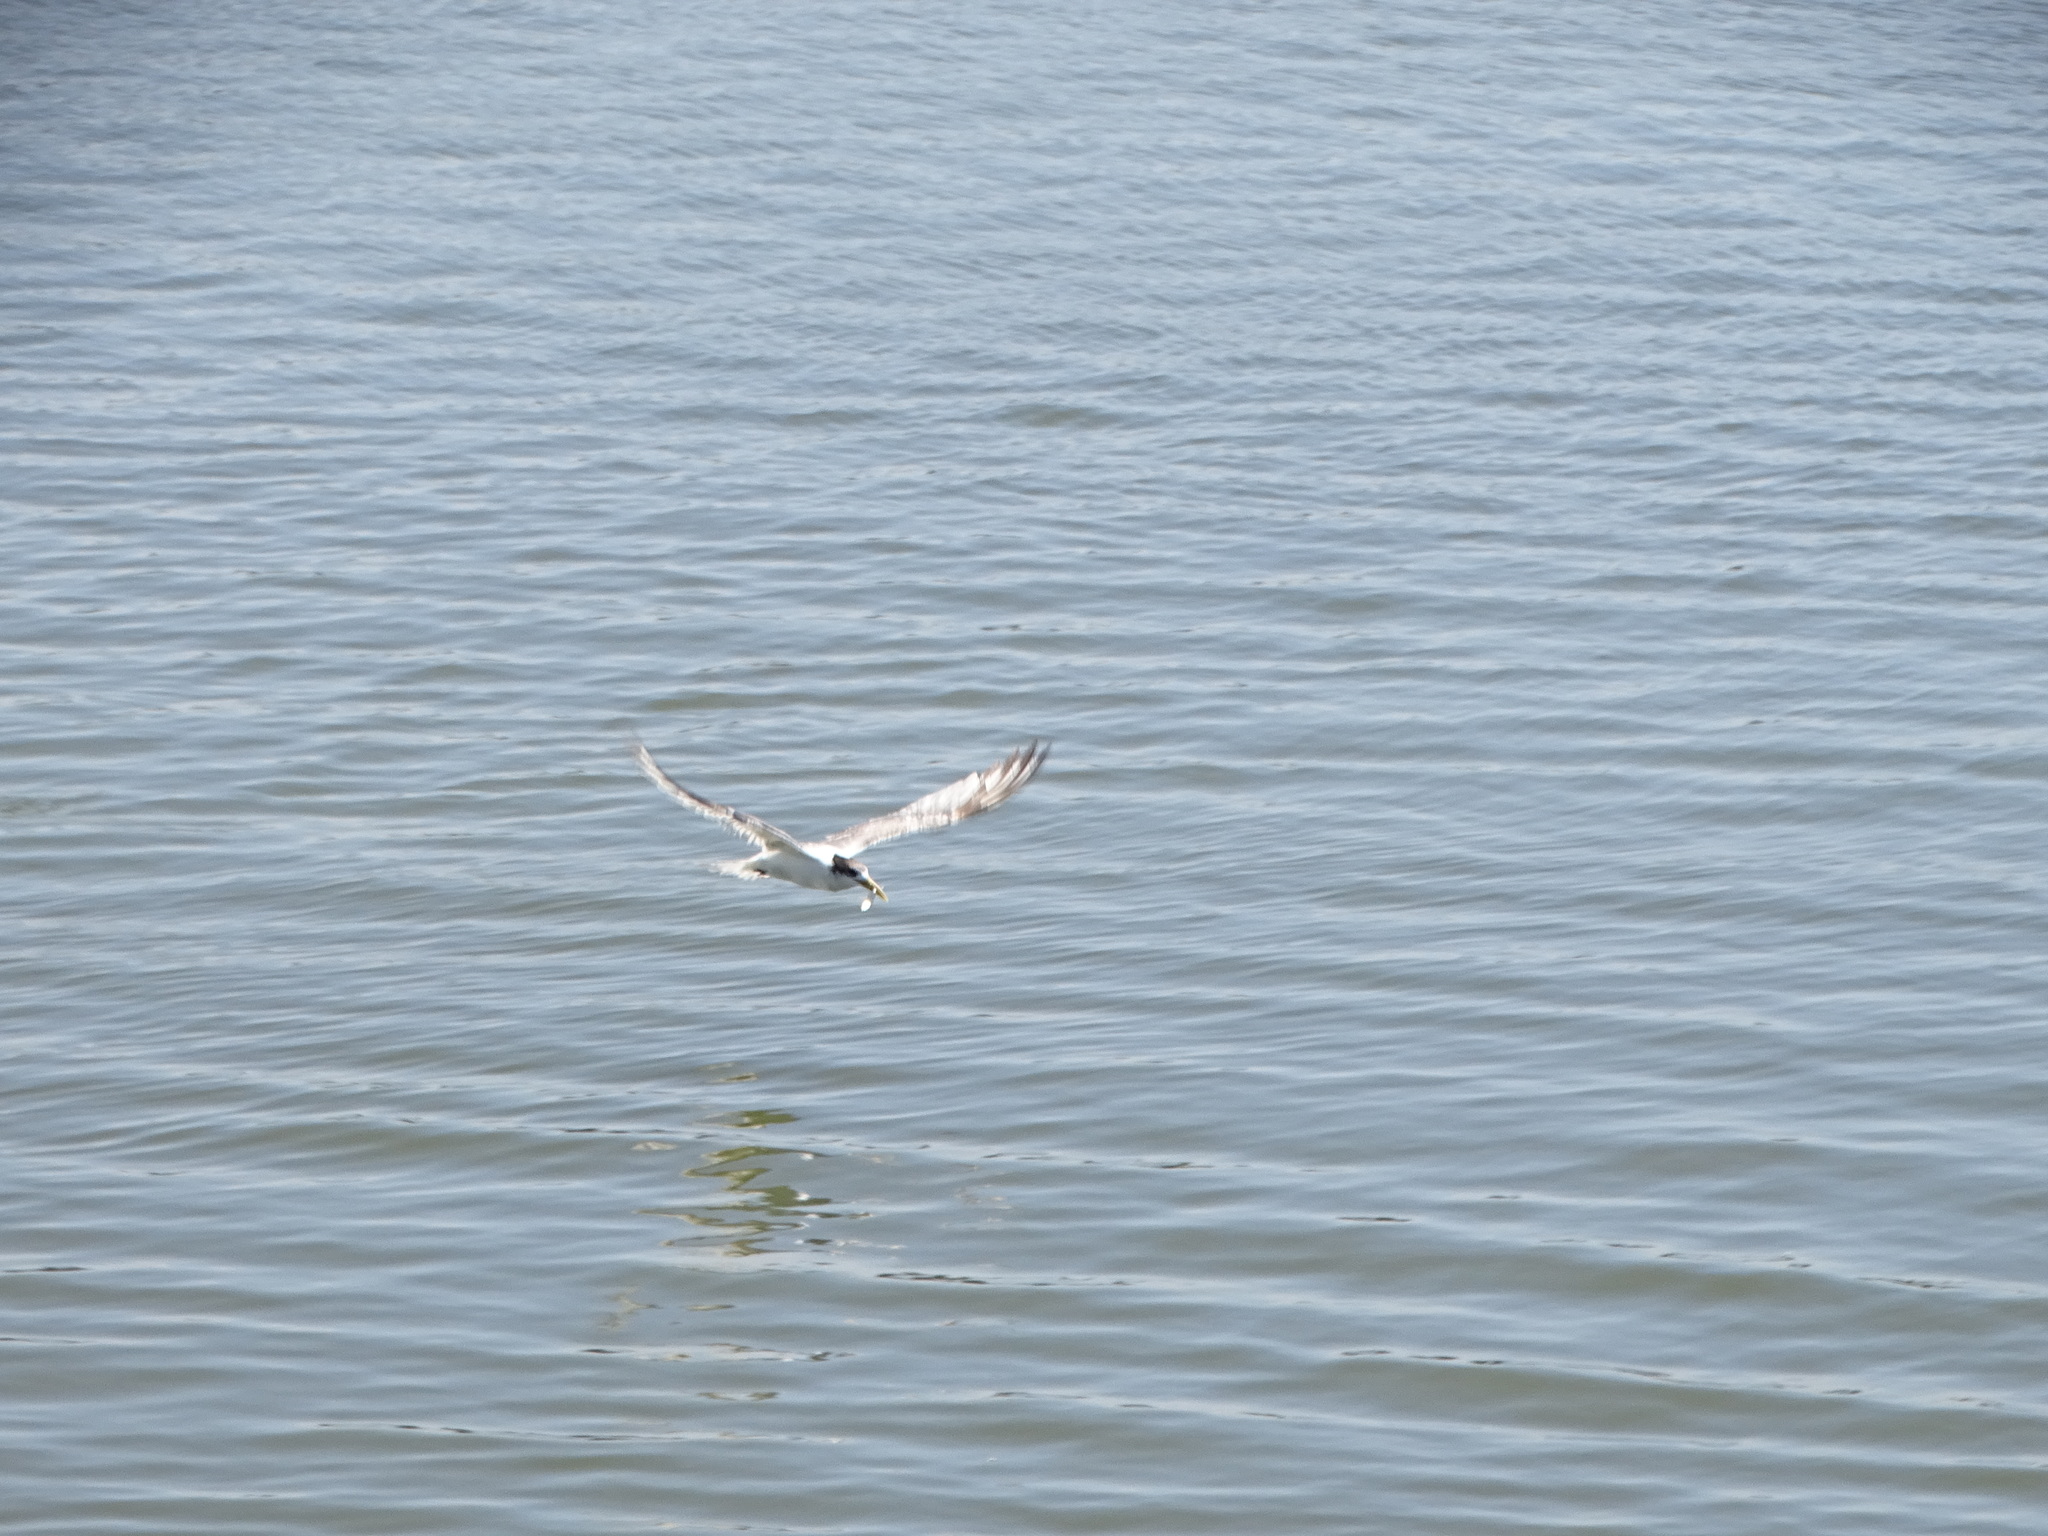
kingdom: Animalia
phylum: Chordata
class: Aves
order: Charadriiformes
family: Laridae
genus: Thalasseus
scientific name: Thalasseus bergii
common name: Greater crested tern
